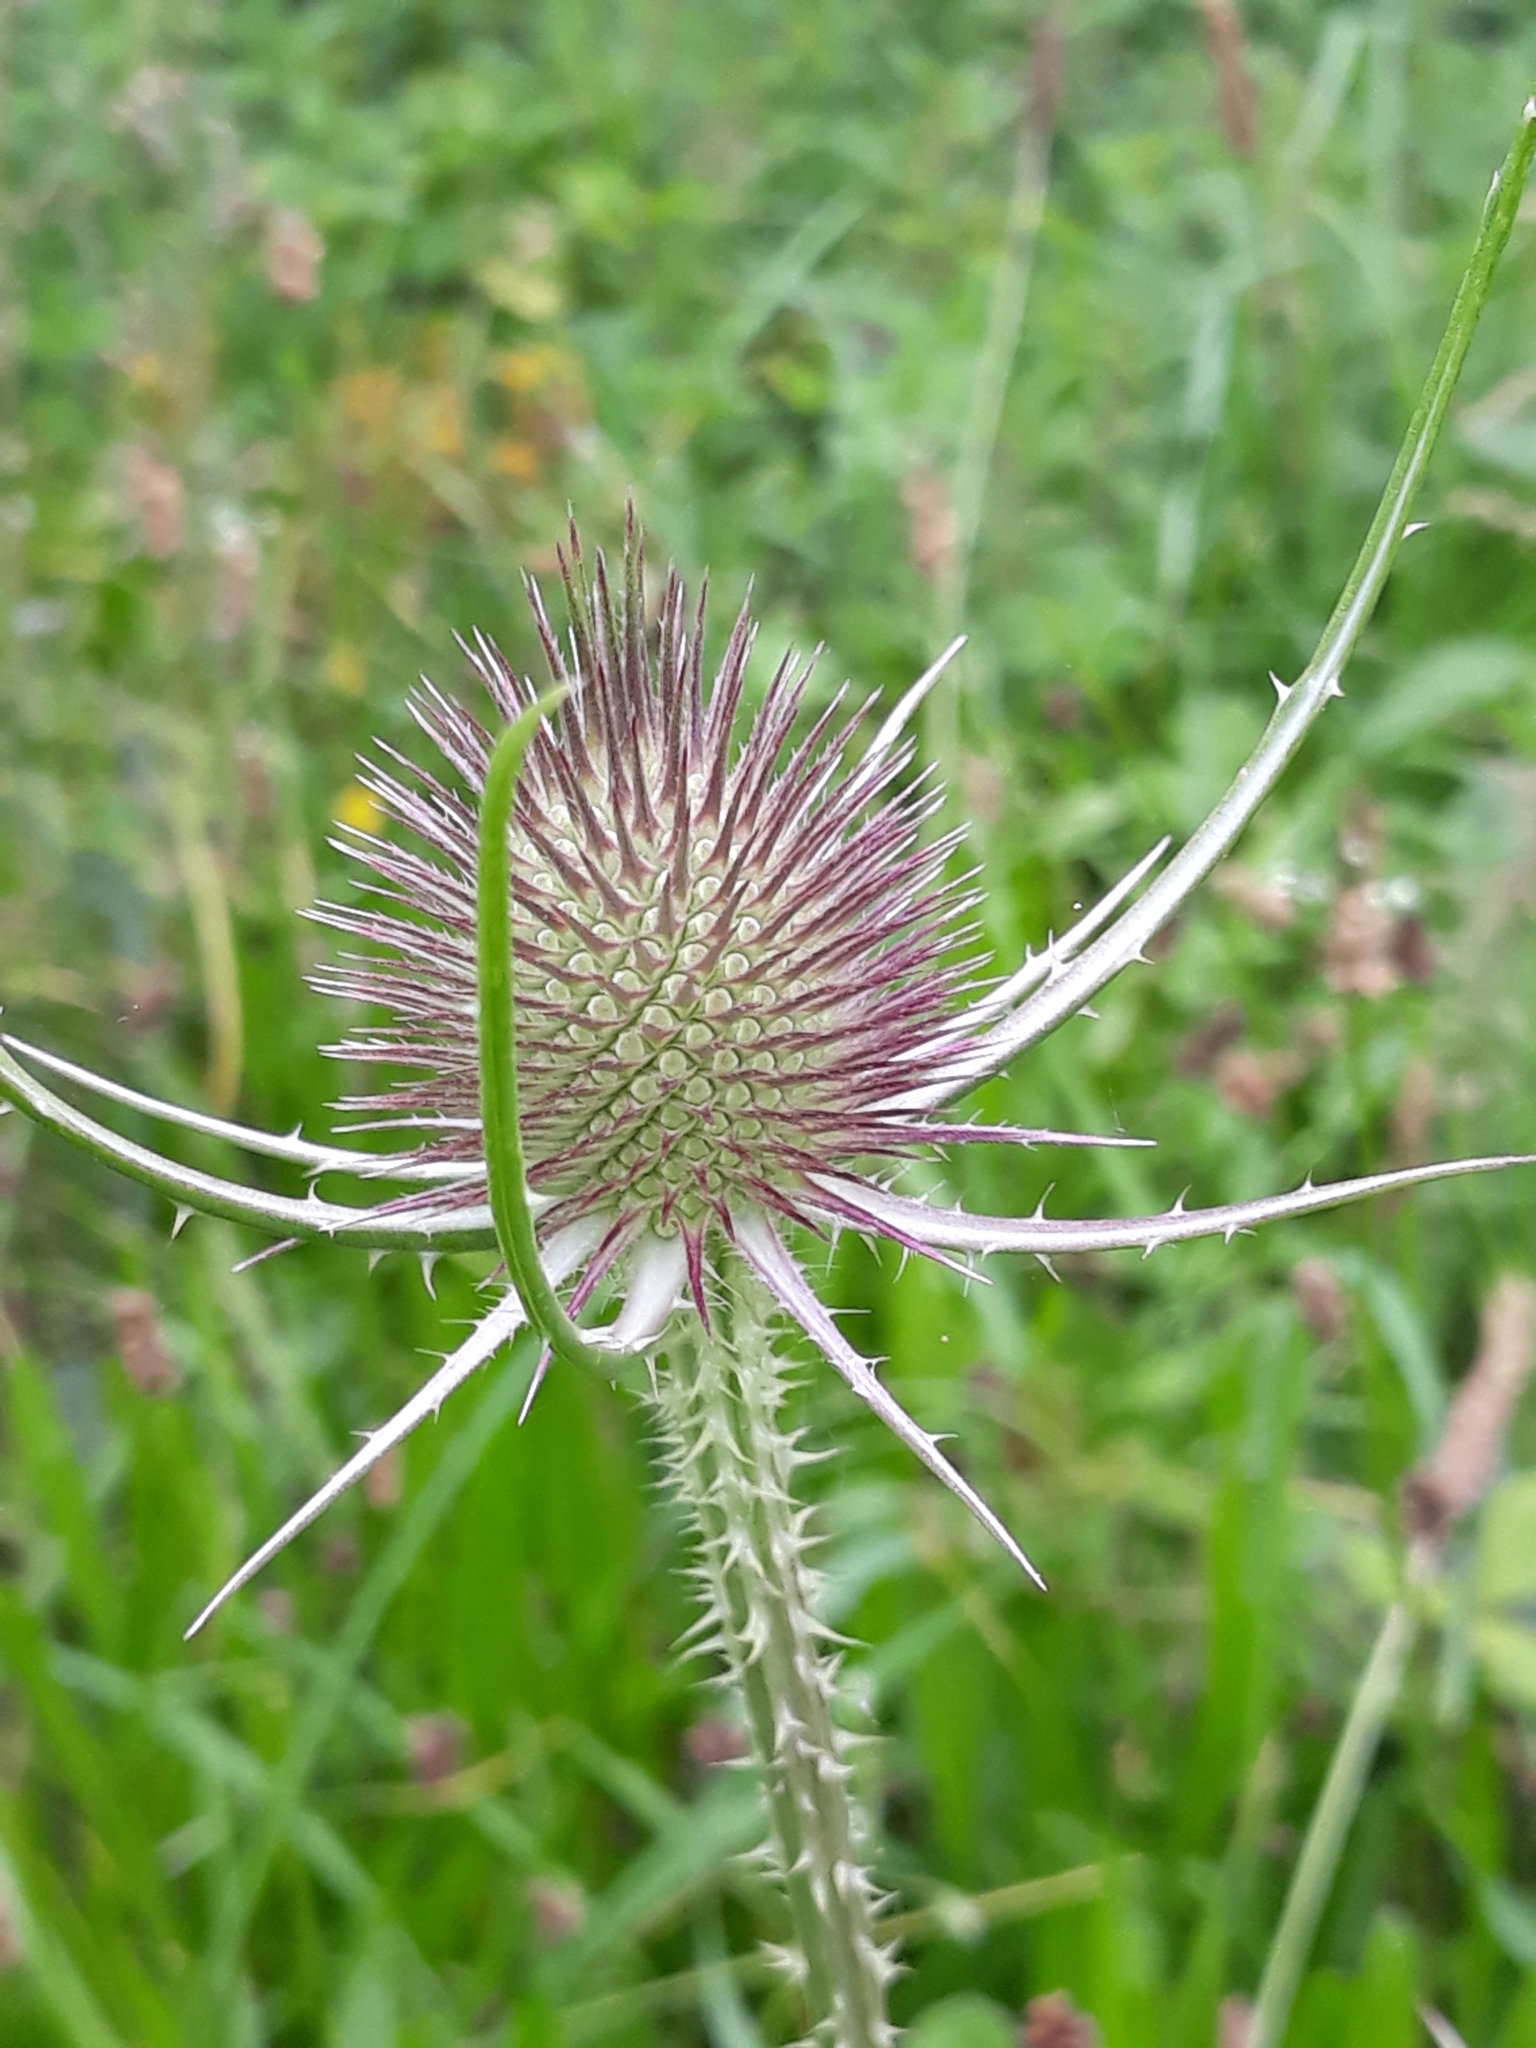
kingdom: Plantae
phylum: Tracheophyta
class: Magnoliopsida
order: Dipsacales
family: Caprifoliaceae
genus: Dipsacus
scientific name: Dipsacus fullonum
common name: Teasel
